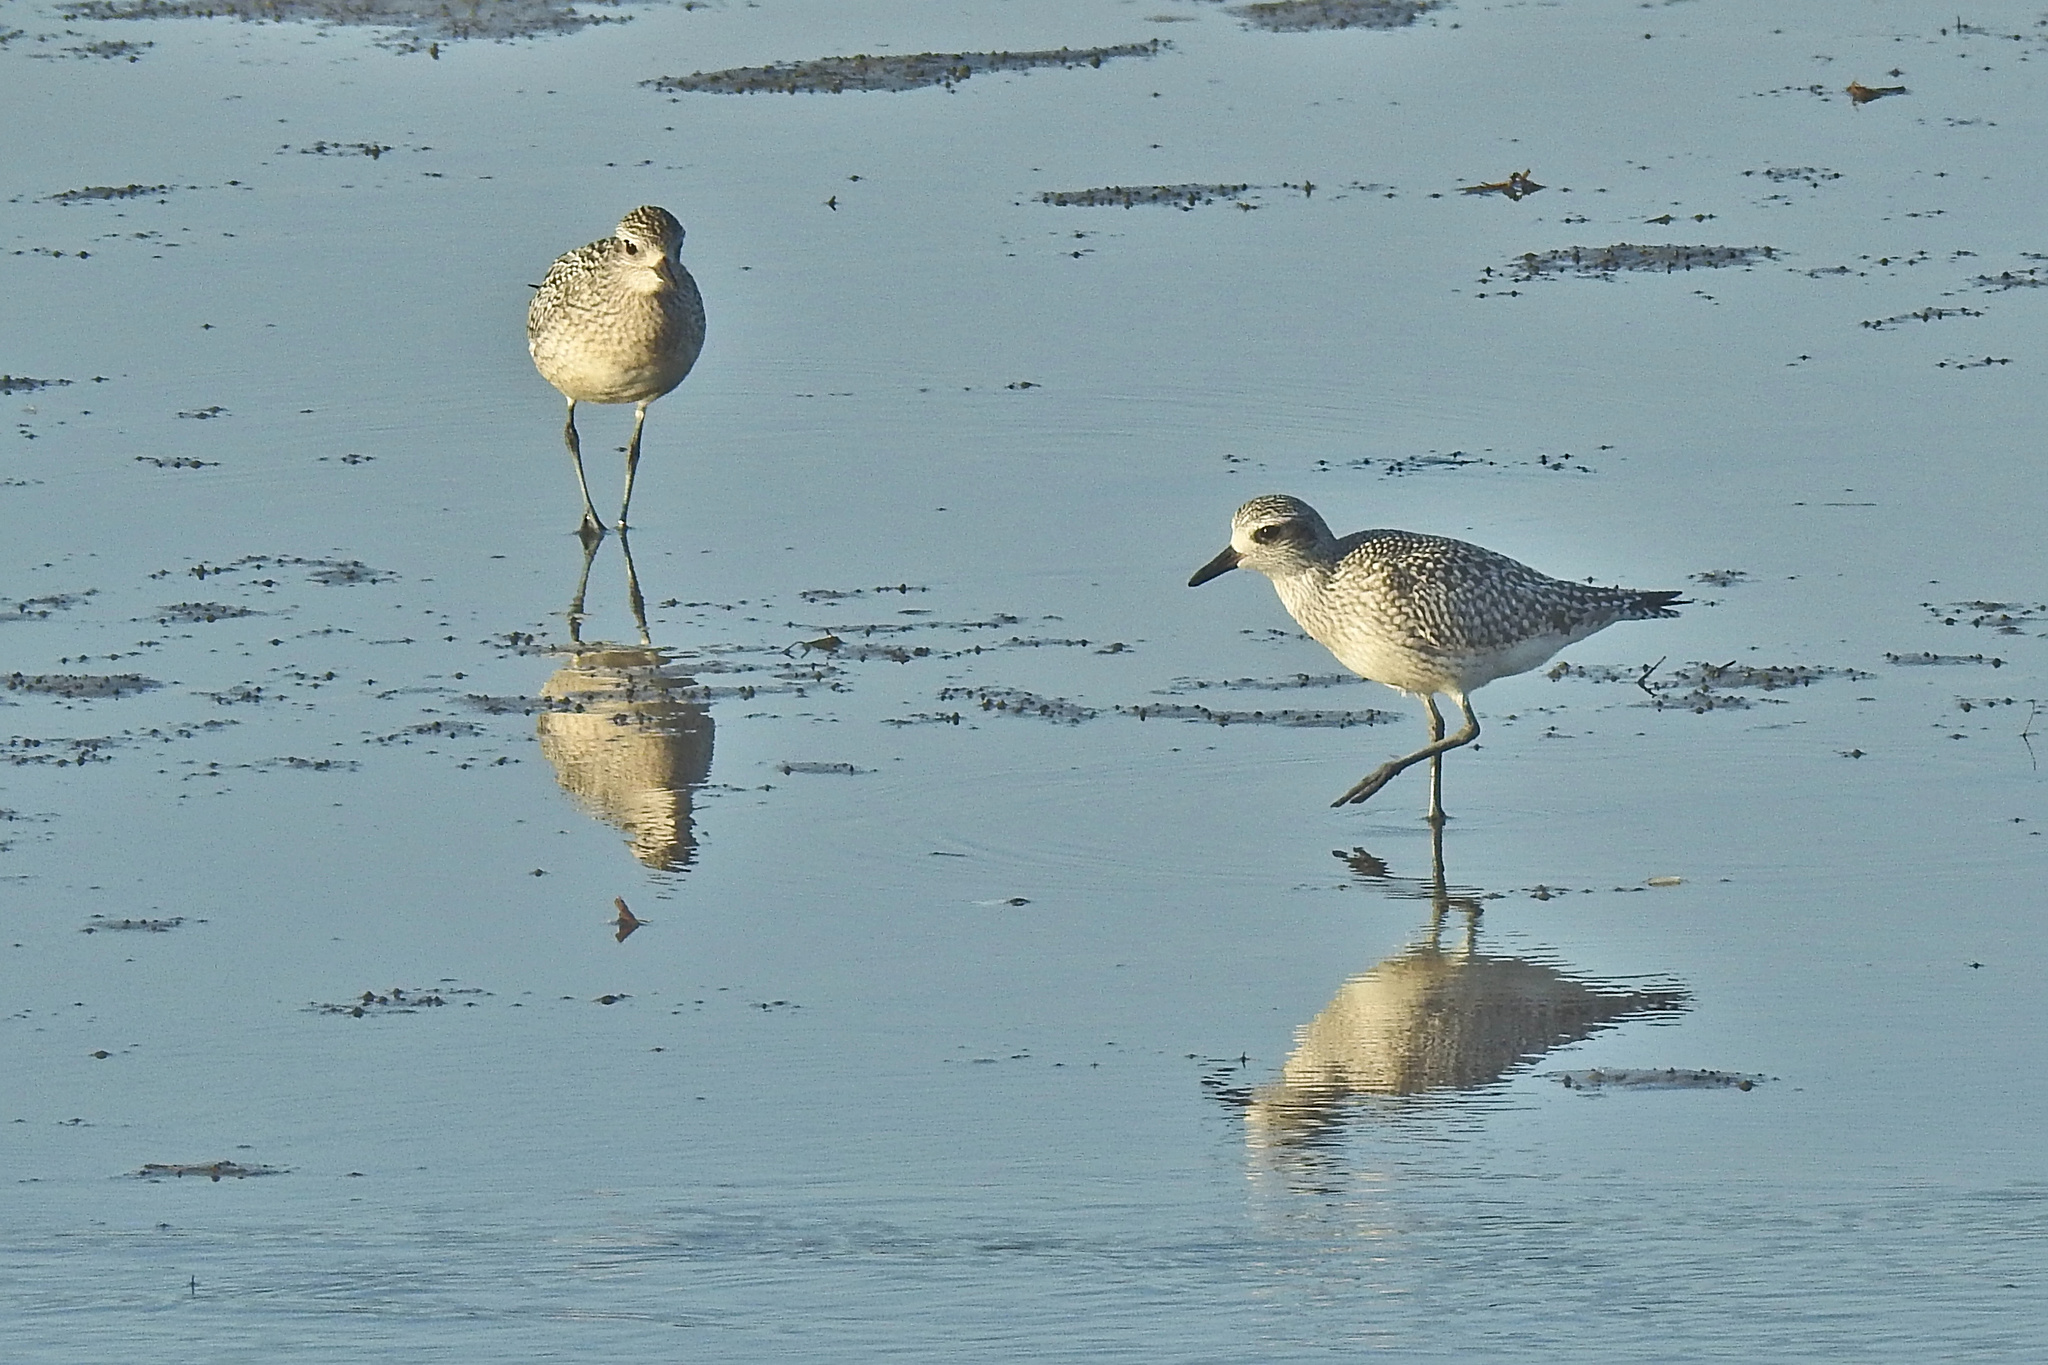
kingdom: Animalia
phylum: Chordata
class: Aves
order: Charadriiformes
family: Charadriidae
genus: Pluvialis
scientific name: Pluvialis squatarola
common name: Grey plover
